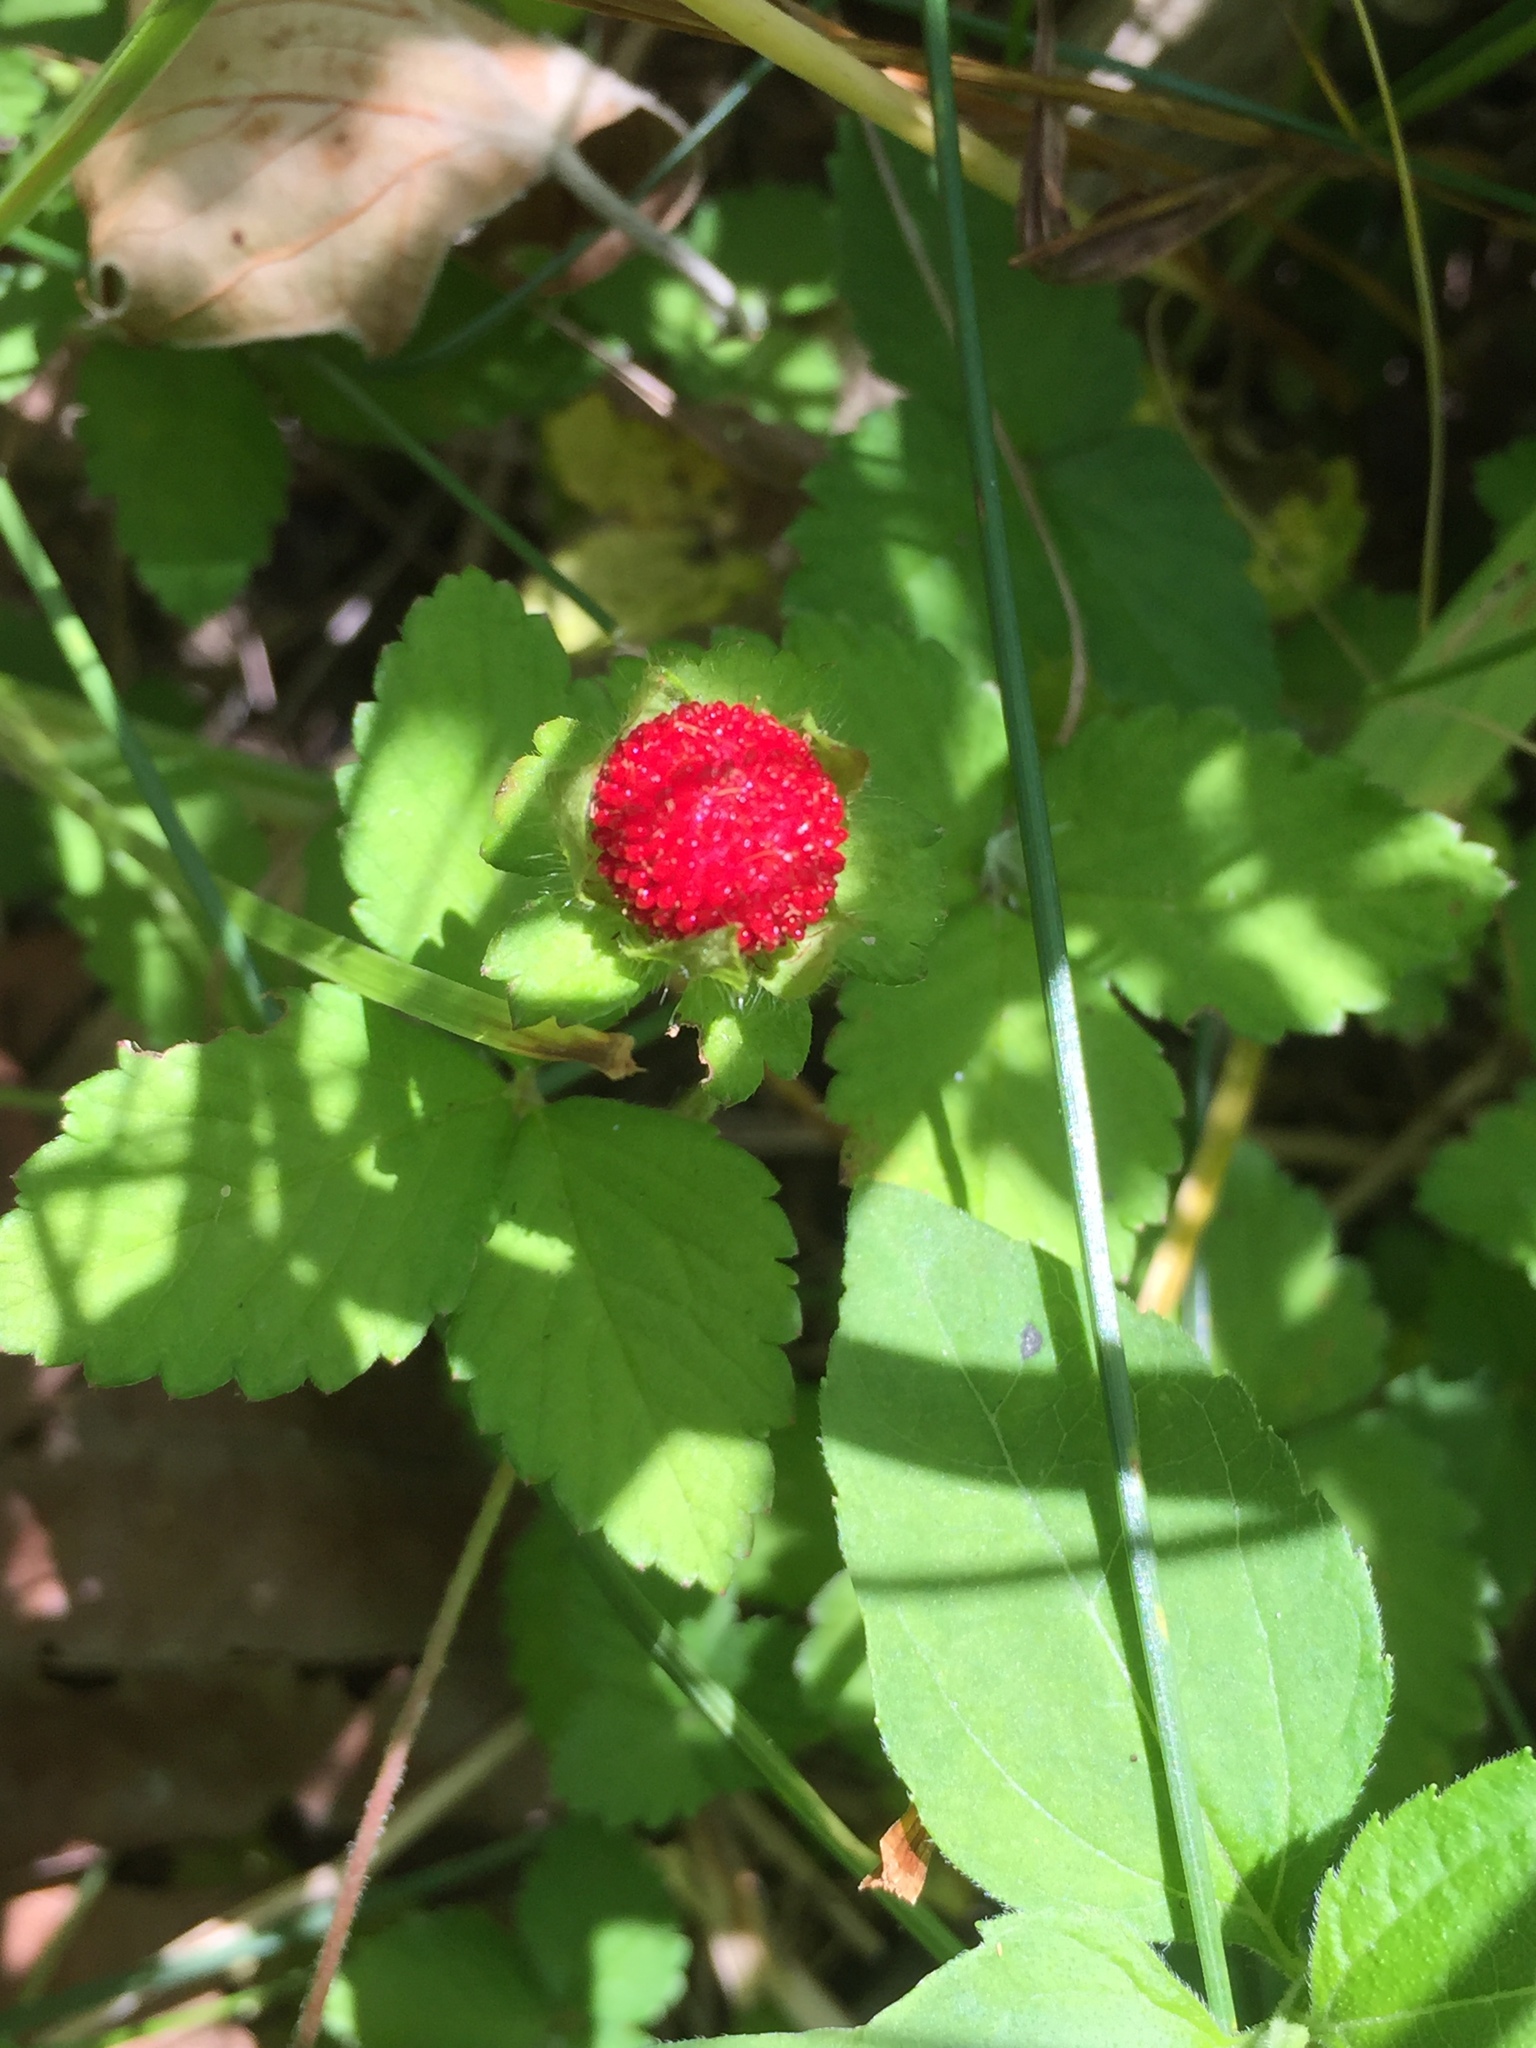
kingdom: Plantae
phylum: Tracheophyta
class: Magnoliopsida
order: Rosales
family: Rosaceae
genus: Potentilla
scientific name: Potentilla indica
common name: Yellow-flowered strawberry
